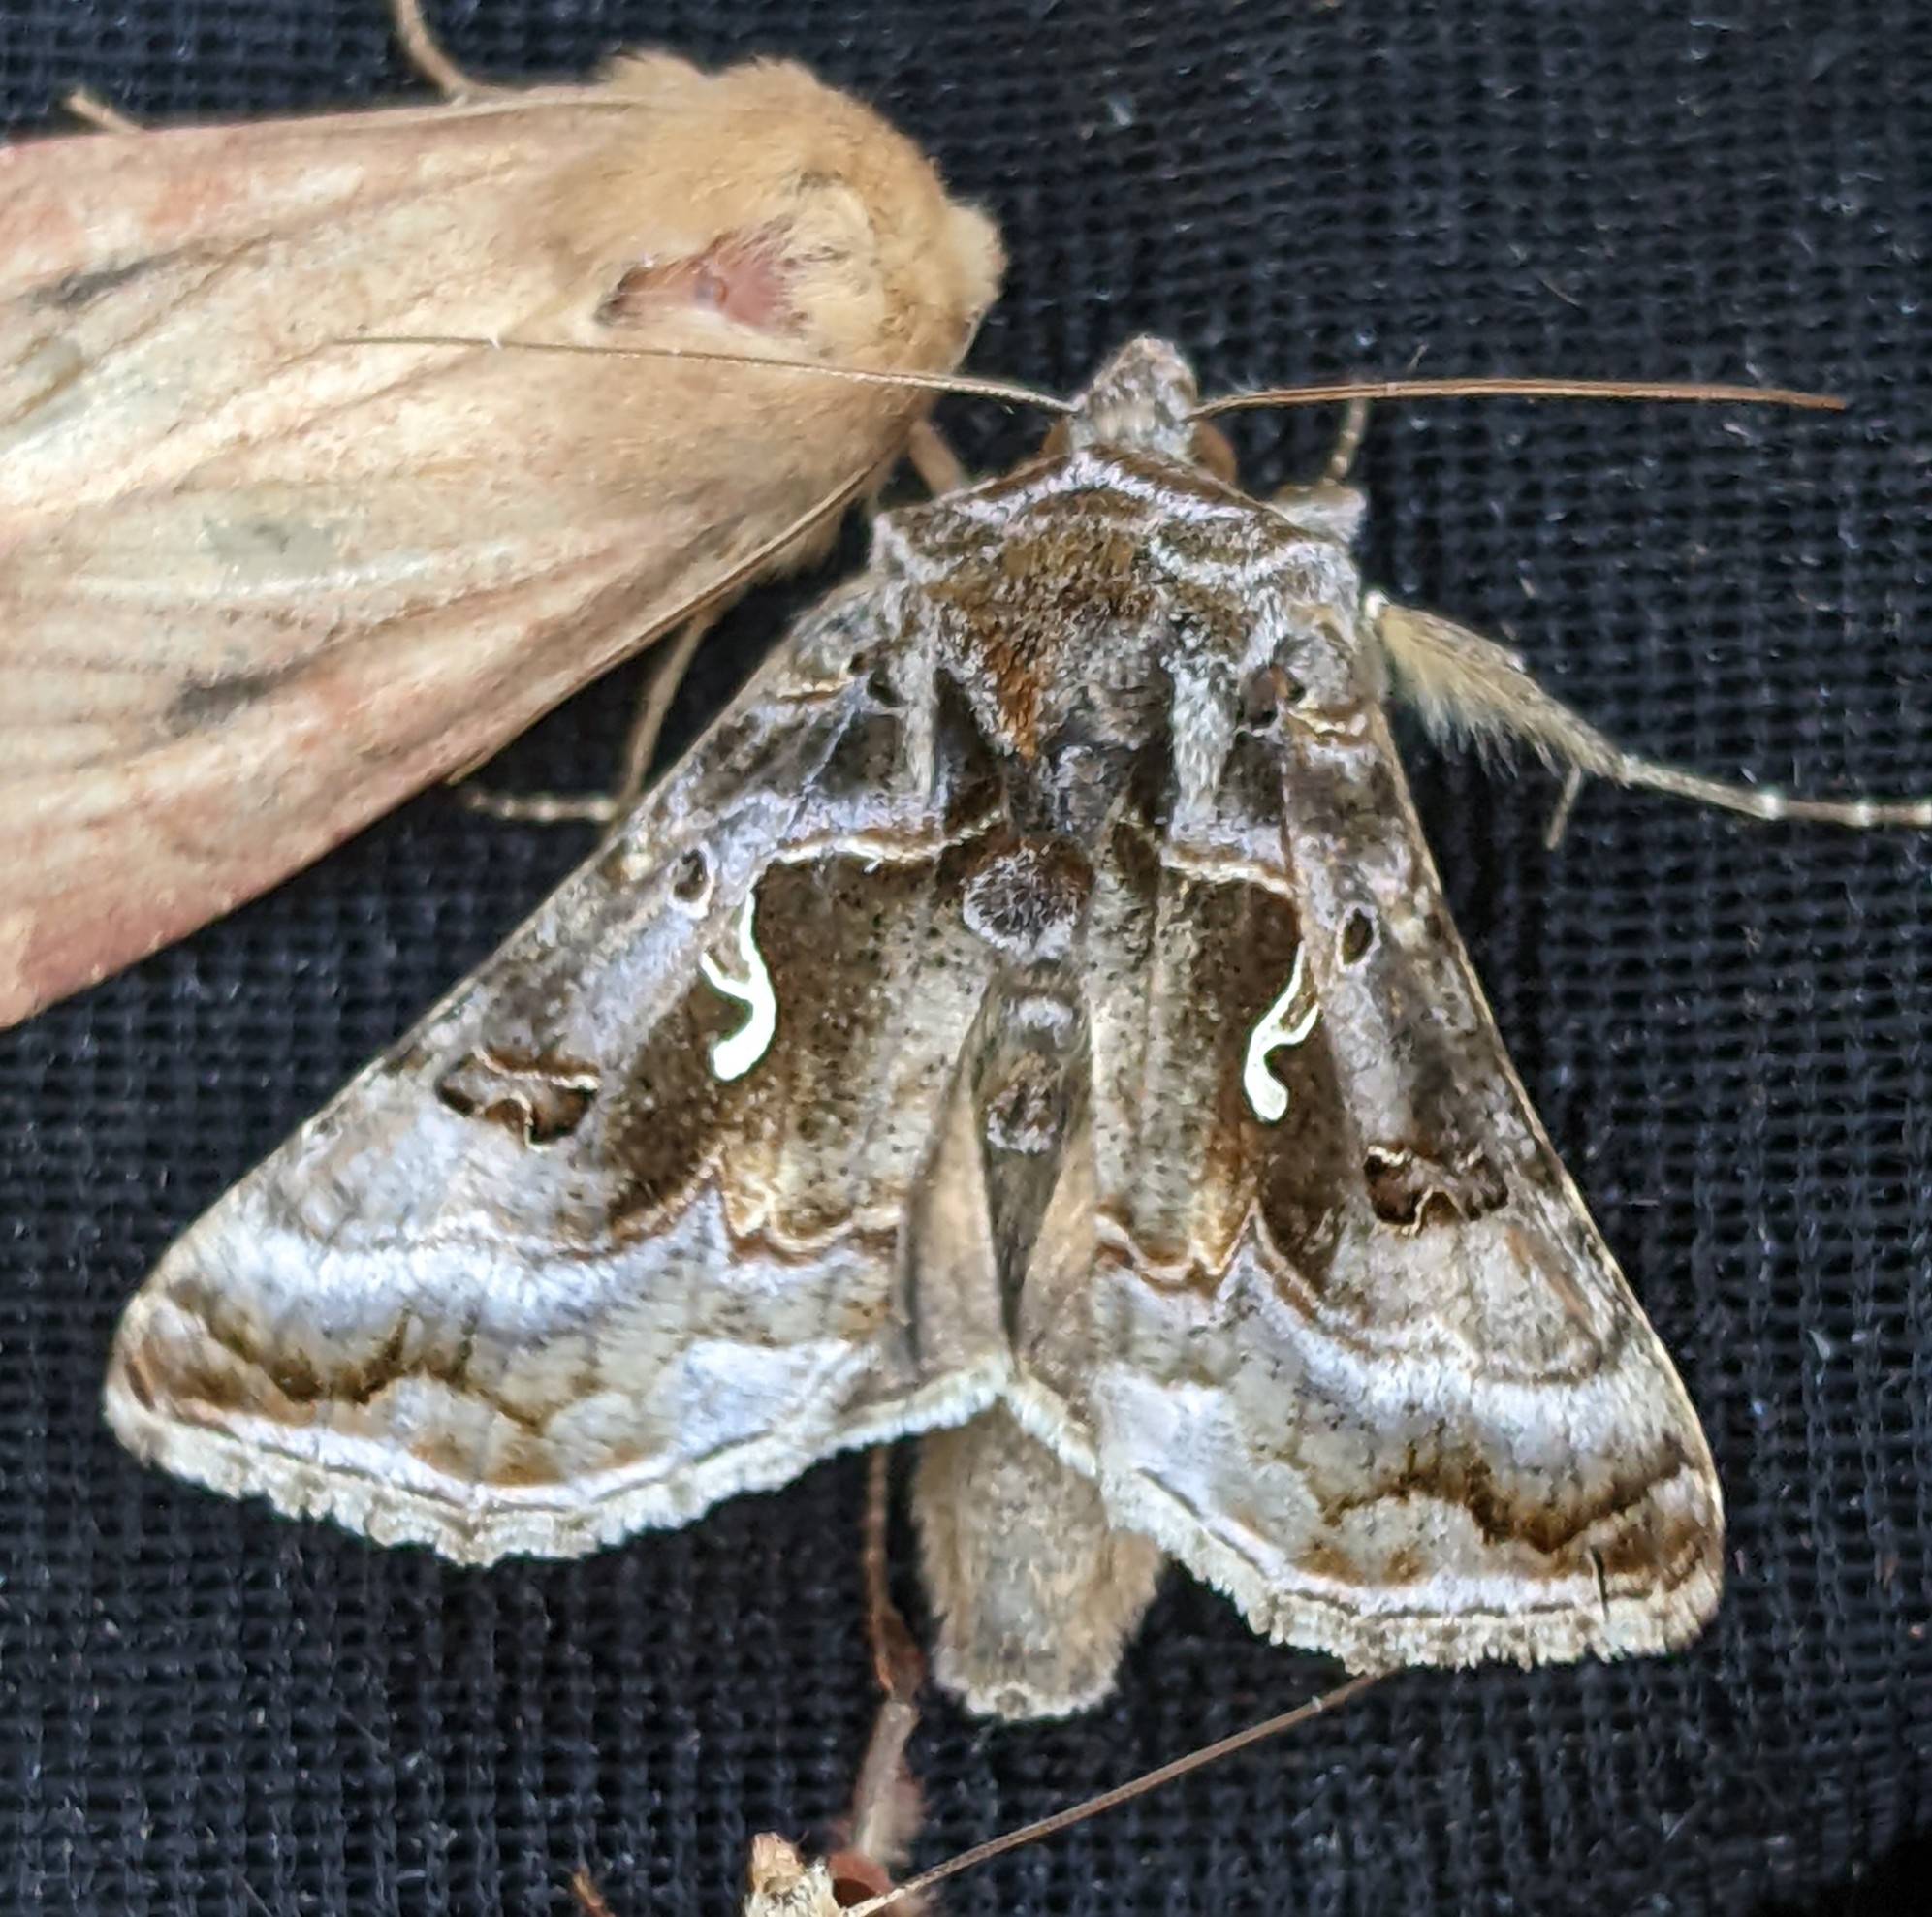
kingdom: Animalia
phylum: Arthropoda
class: Insecta
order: Lepidoptera
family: Noctuidae
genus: Autographa
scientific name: Autographa pseudogamma
